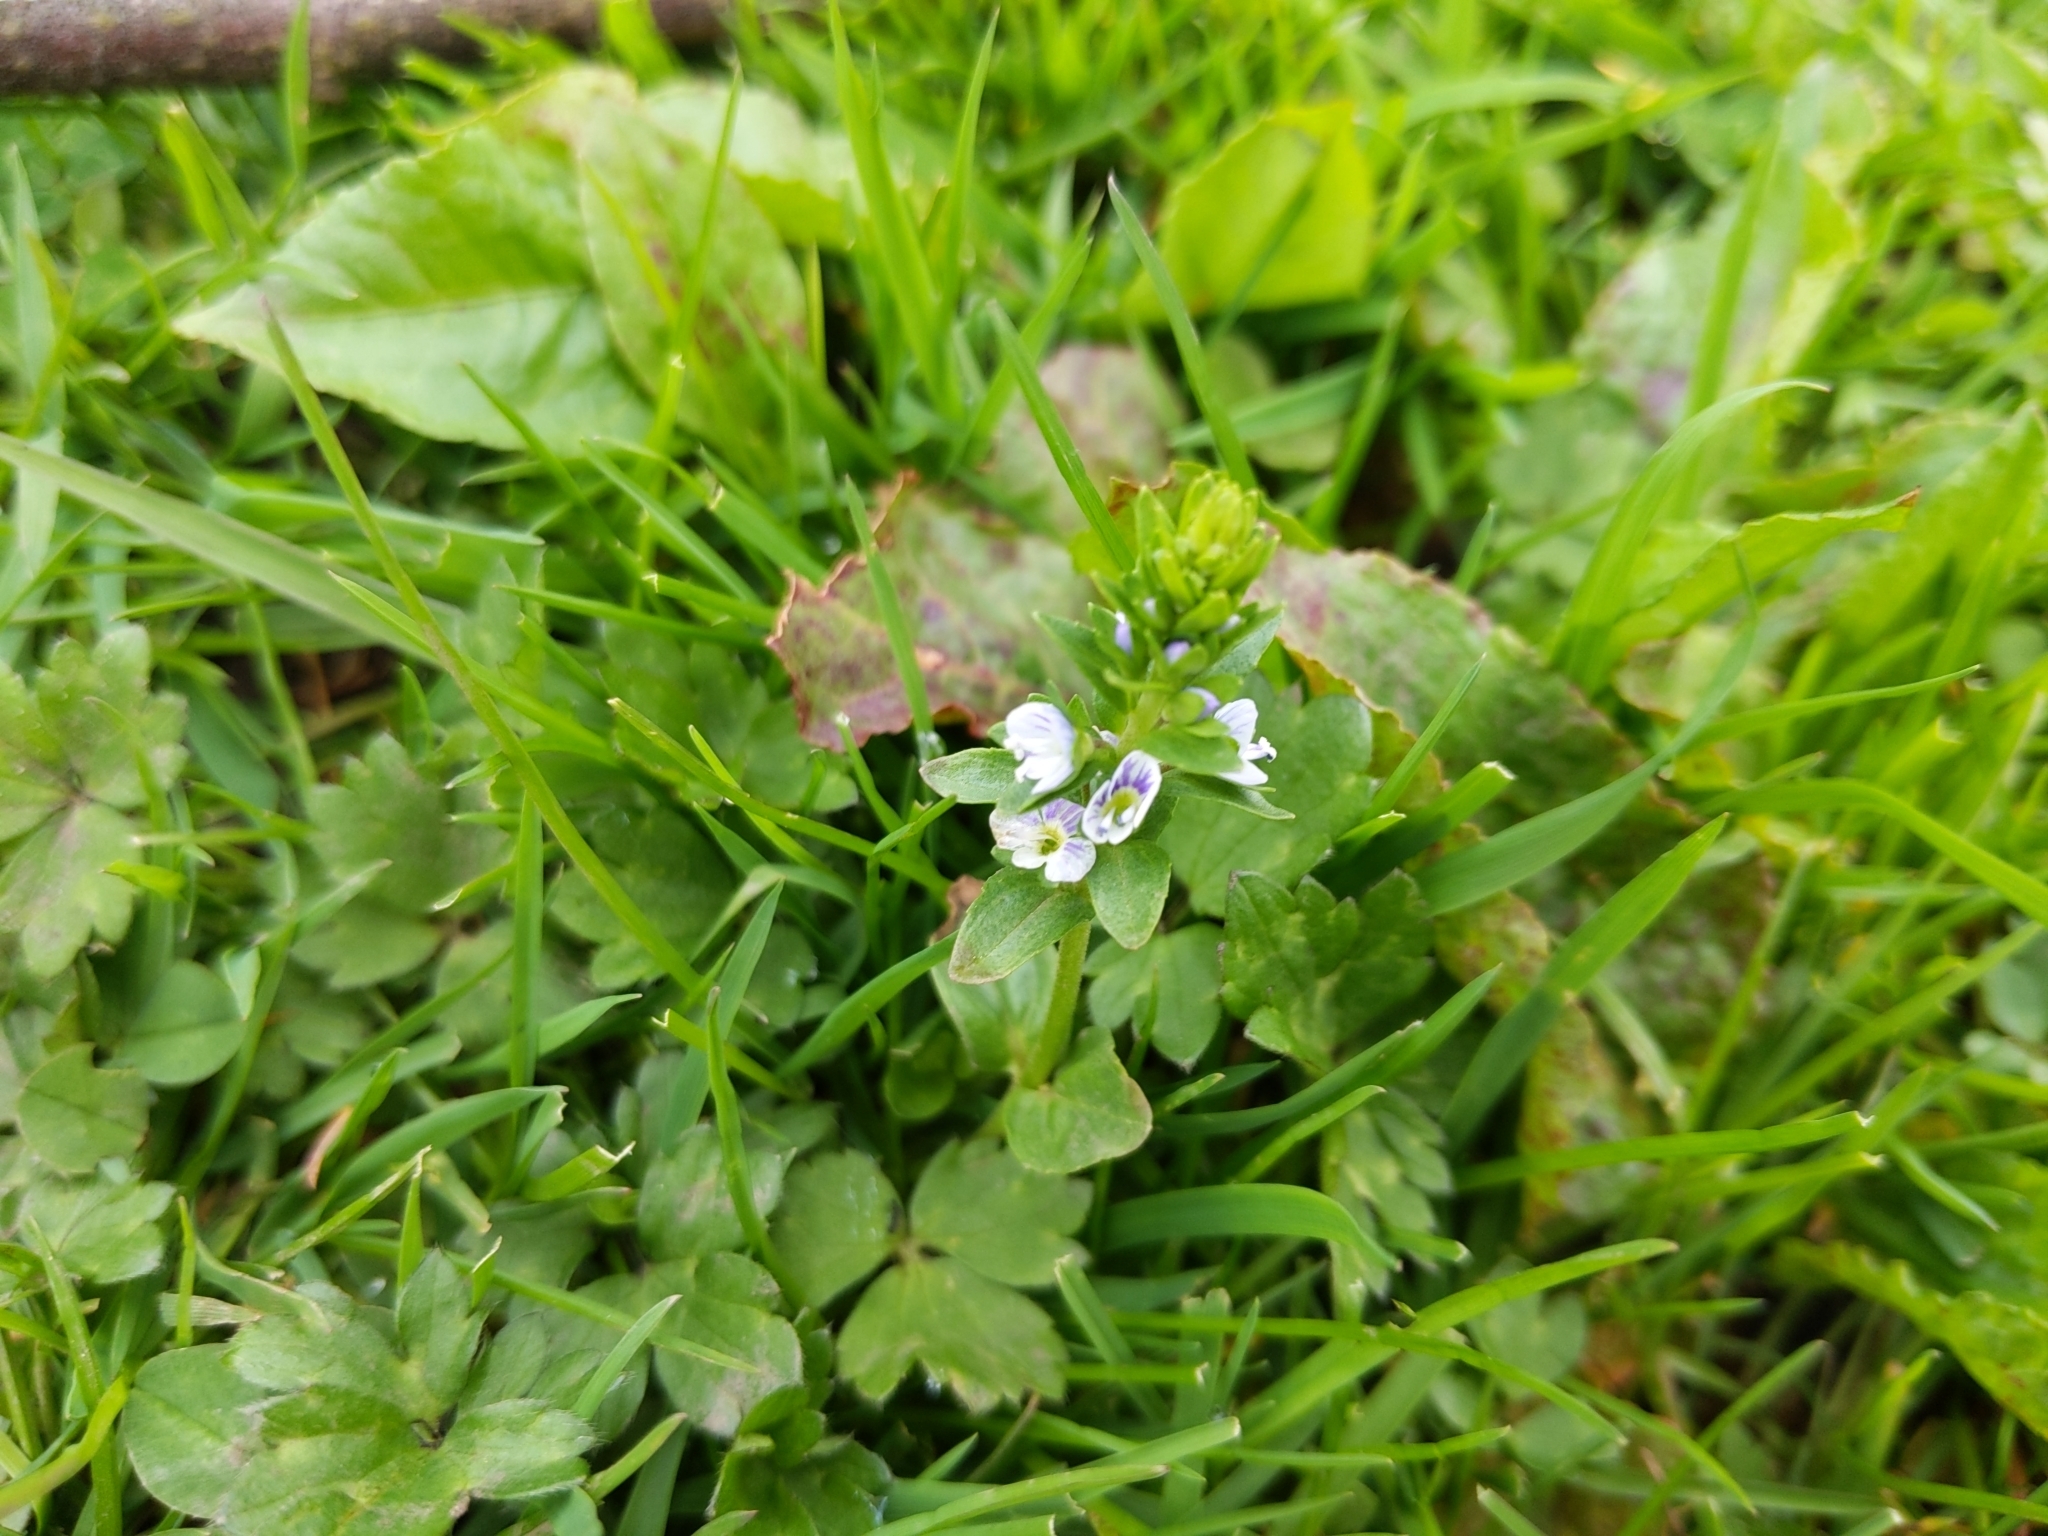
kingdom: Plantae
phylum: Tracheophyta
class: Magnoliopsida
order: Lamiales
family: Plantaginaceae
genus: Veronica
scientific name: Veronica serpyllifolia
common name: Thyme-leaved speedwell
